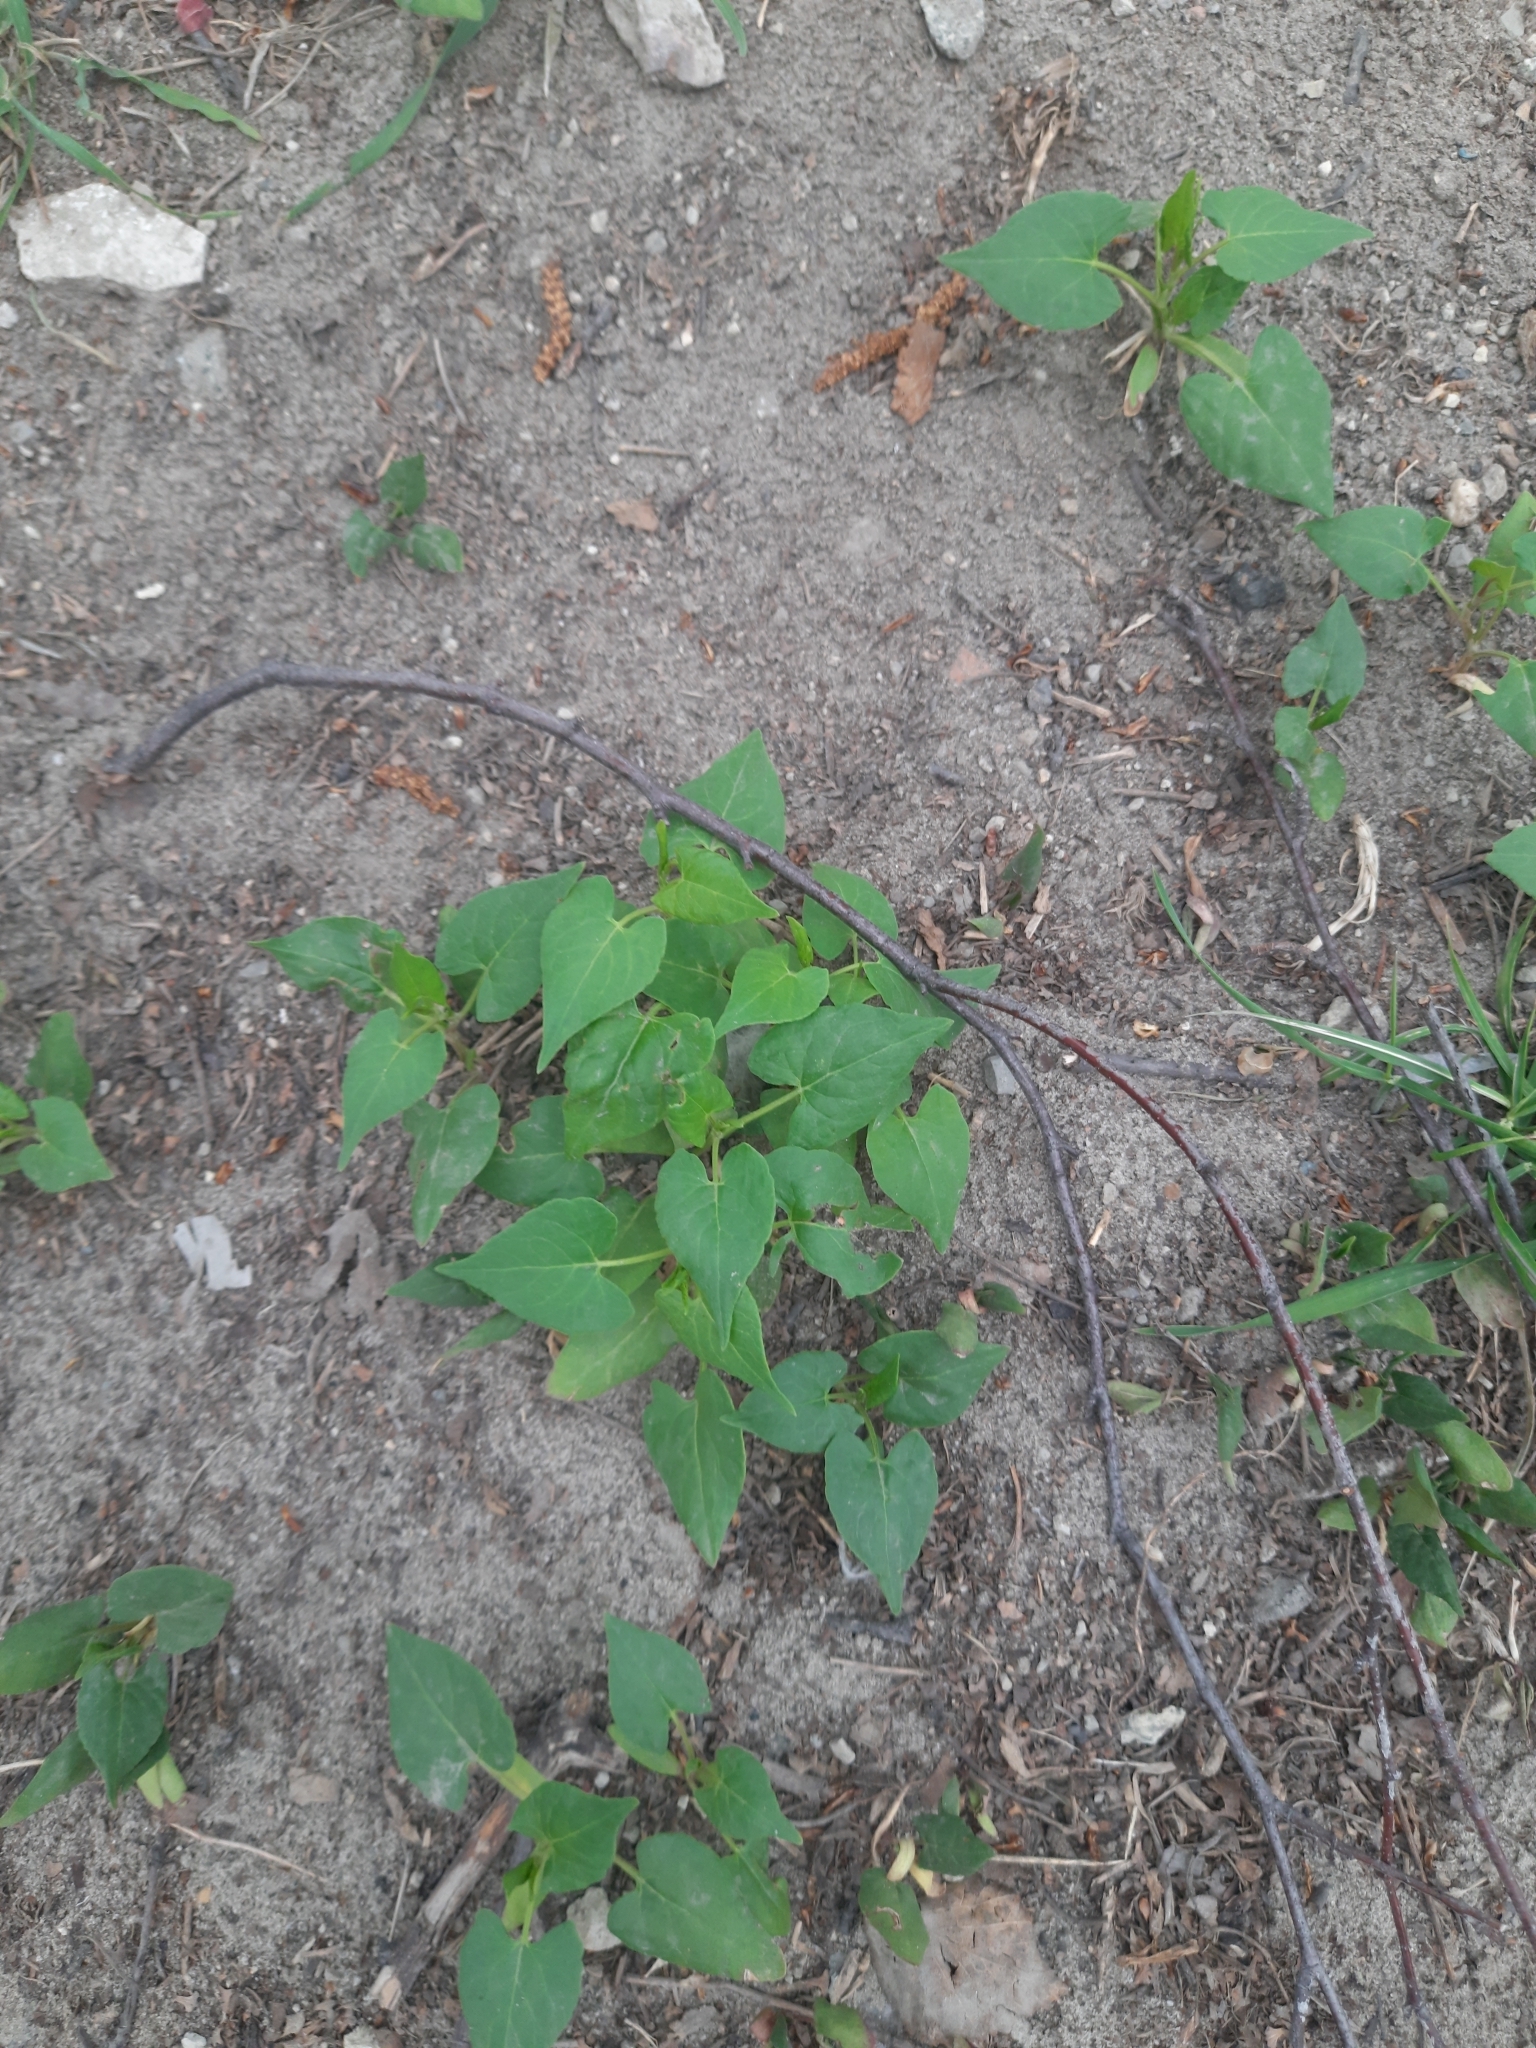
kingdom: Plantae
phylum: Tracheophyta
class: Magnoliopsida
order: Caryophyllales
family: Polygonaceae
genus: Fallopia
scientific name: Fallopia convolvulus
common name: Black bindweed
